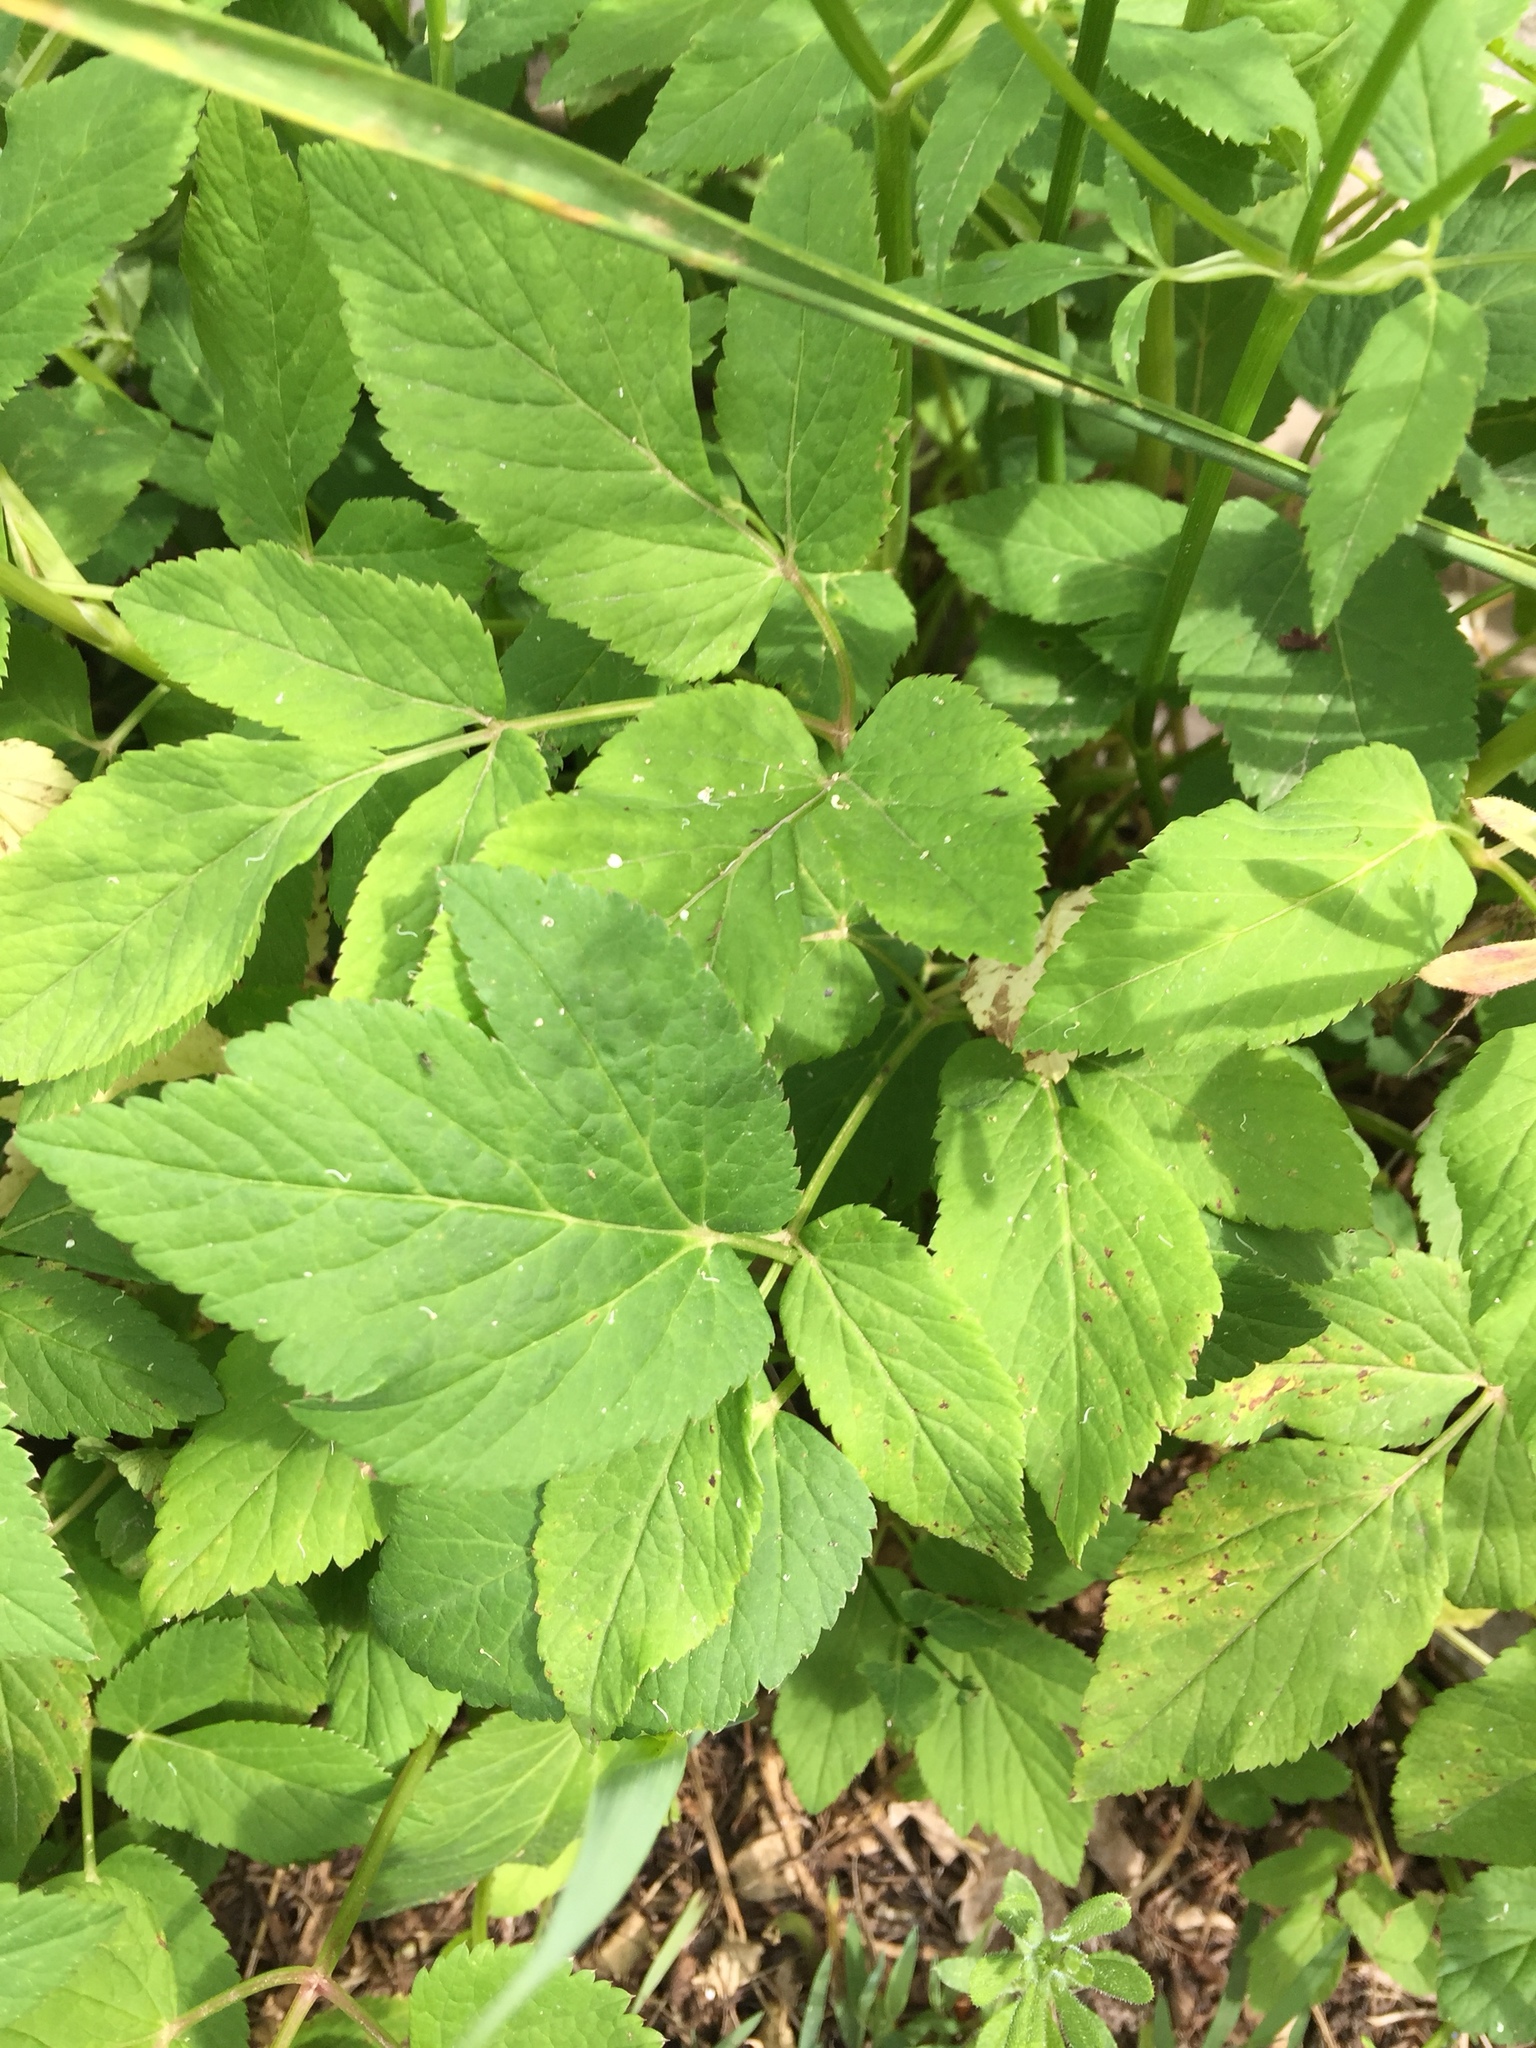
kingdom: Plantae
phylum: Tracheophyta
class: Magnoliopsida
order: Apiales
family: Apiaceae
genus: Aegopodium
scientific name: Aegopodium podagraria
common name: Ground-elder
